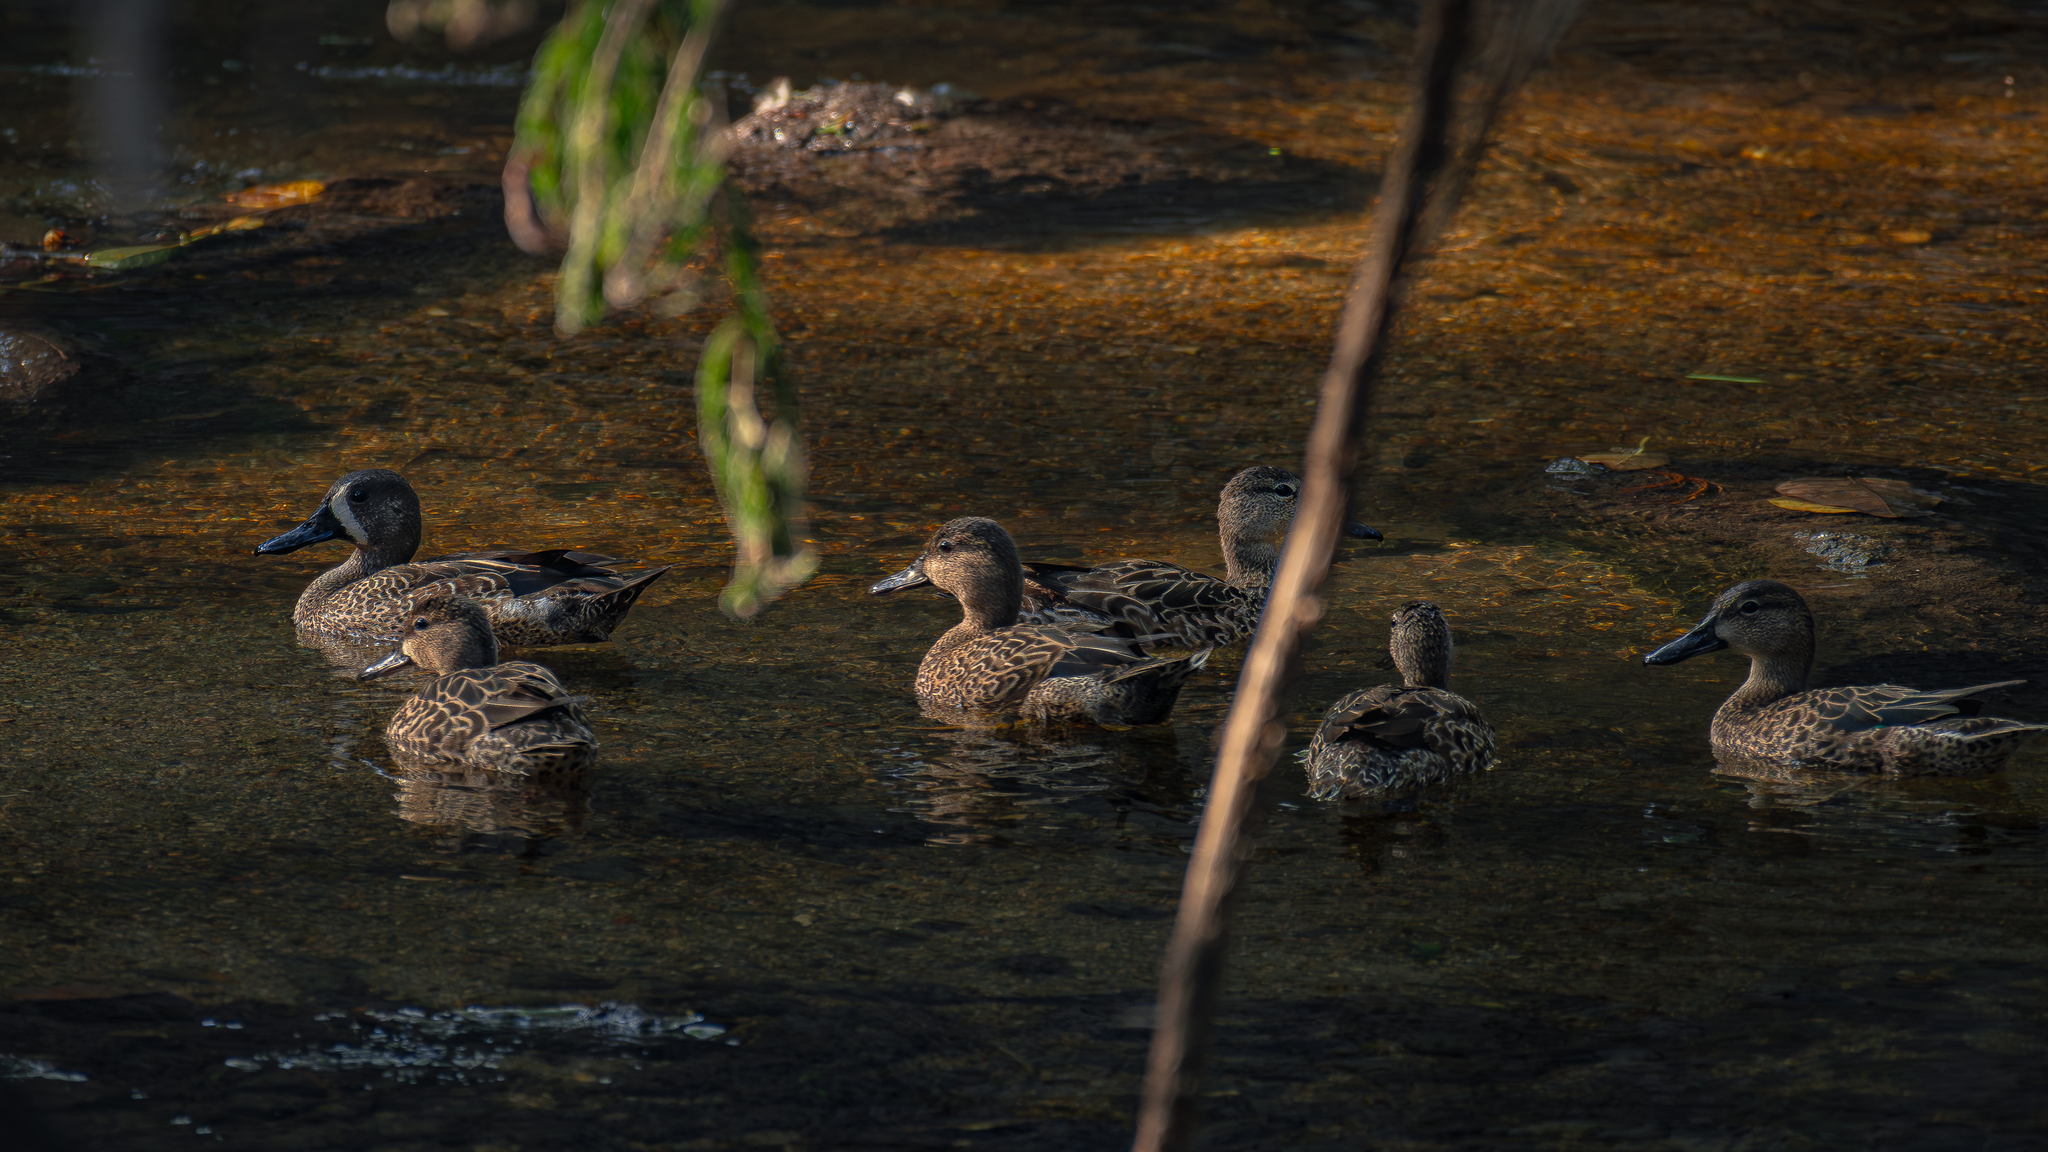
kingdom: Animalia
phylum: Chordata
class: Aves
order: Anseriformes
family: Anatidae
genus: Spatula
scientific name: Spatula discors
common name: Blue-winged teal
